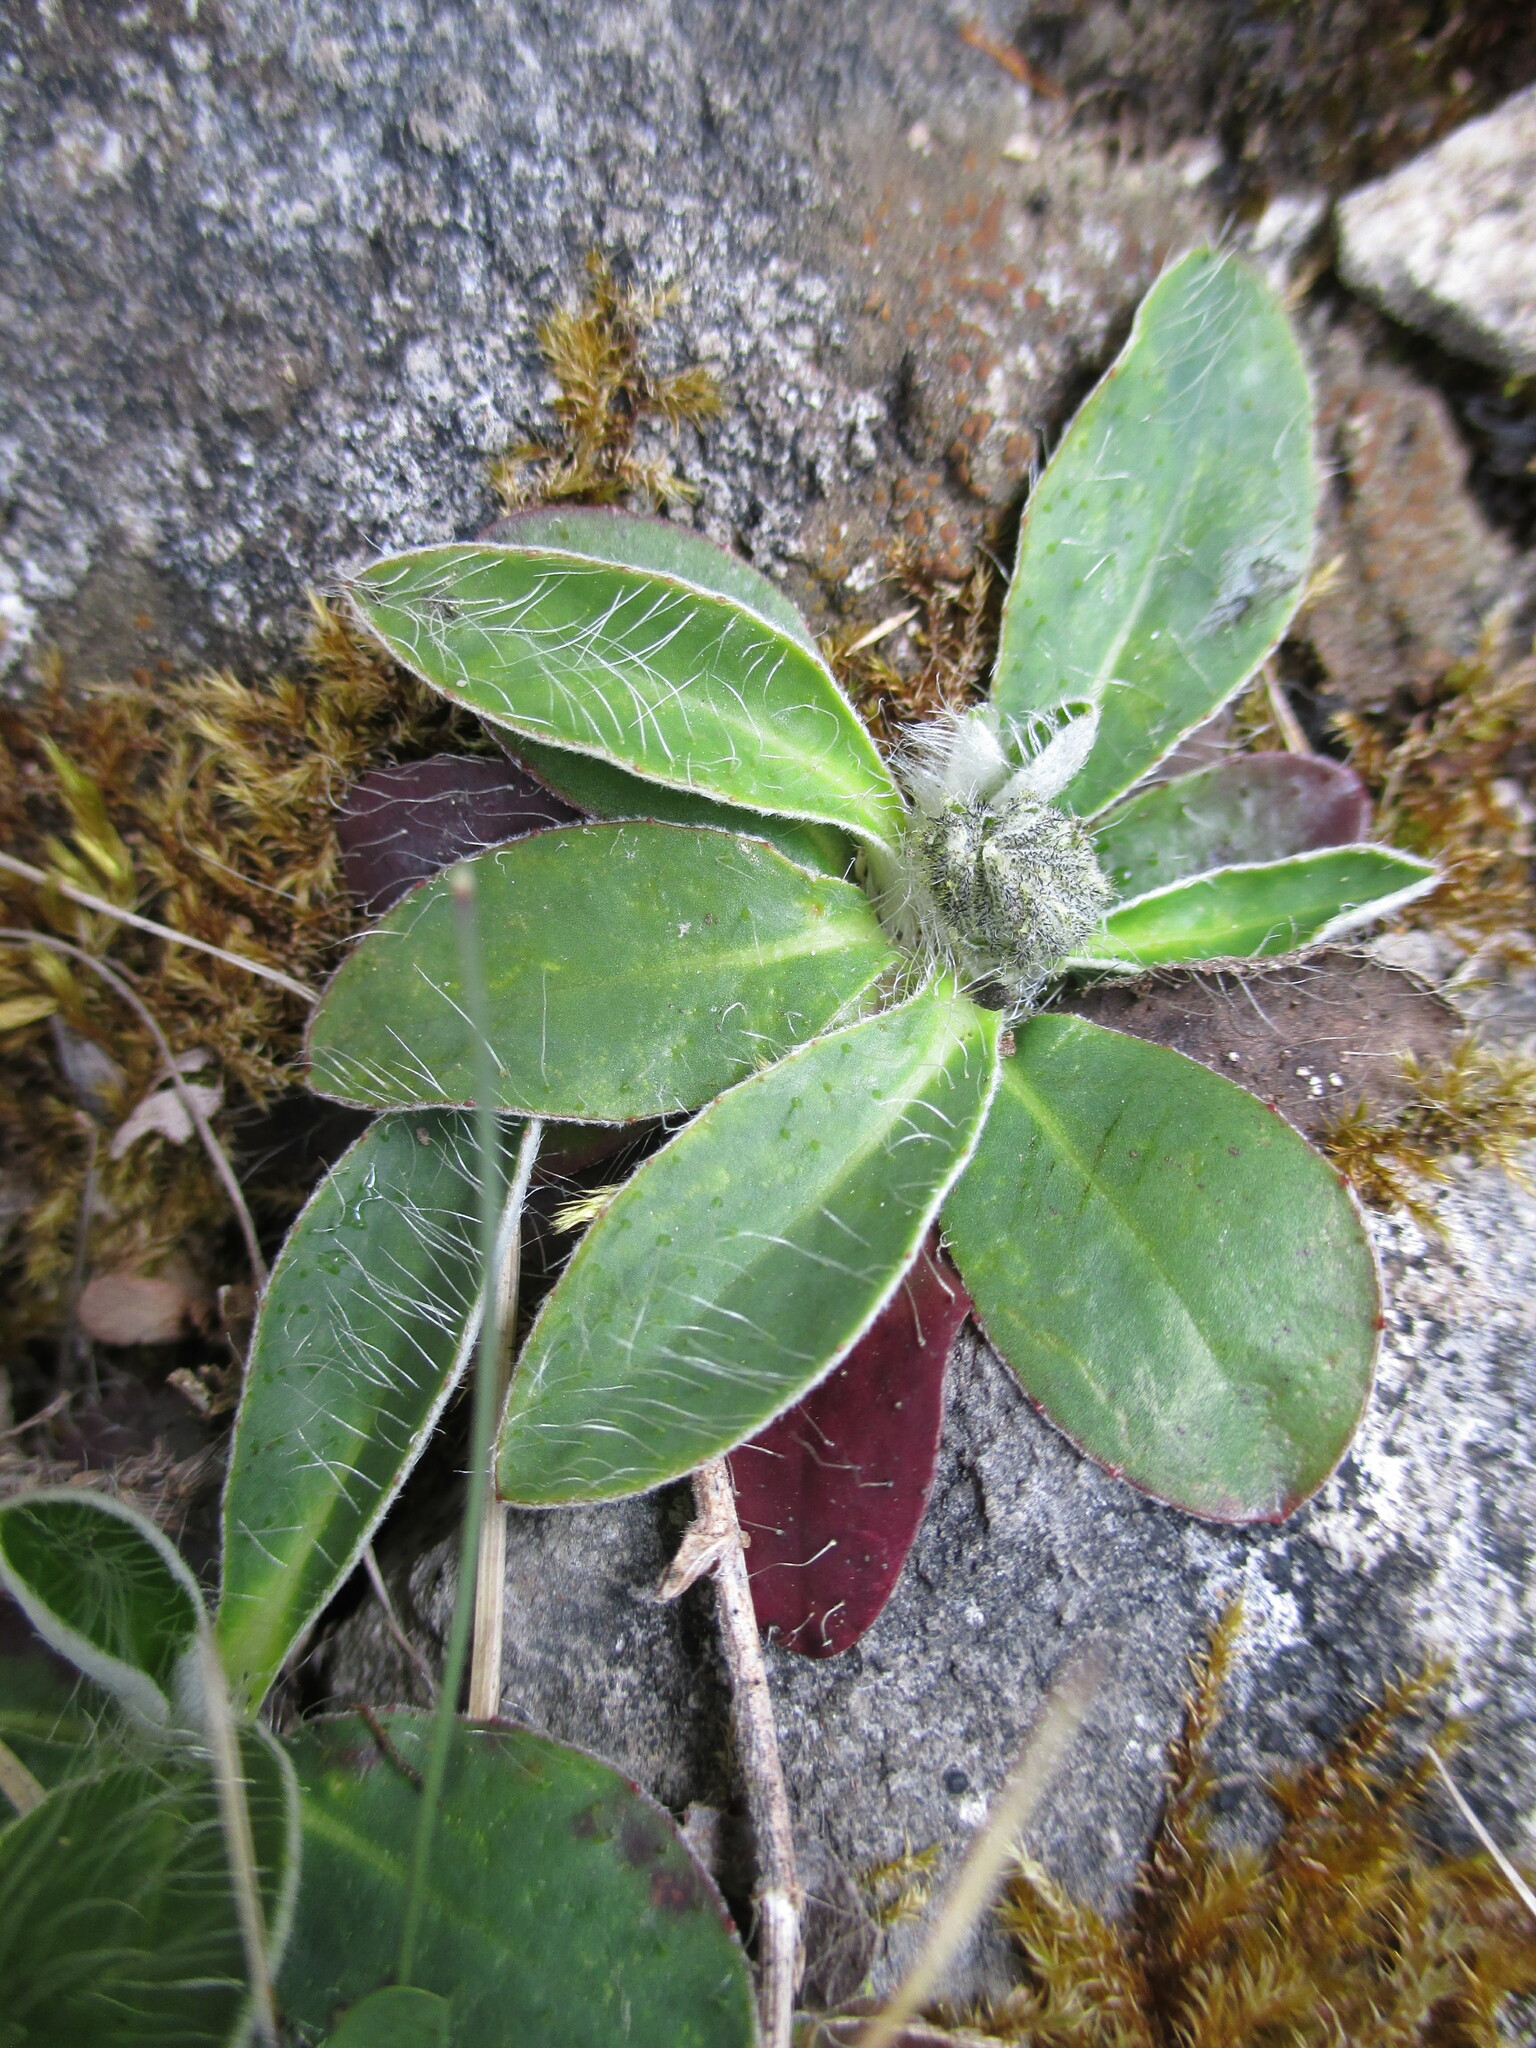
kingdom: Plantae
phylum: Tracheophyta
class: Magnoliopsida
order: Asterales
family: Asteraceae
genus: Pilosella
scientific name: Pilosella officinarum
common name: Mouse-ear hawkweed
